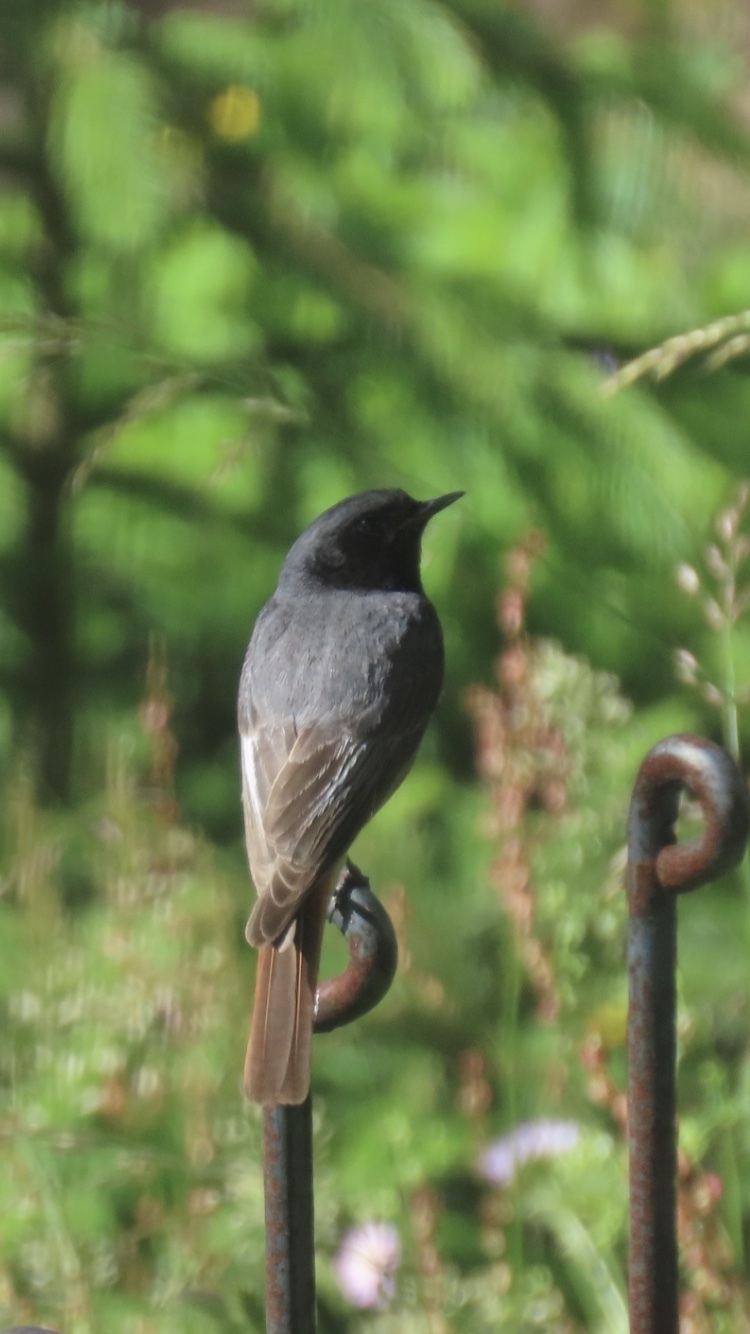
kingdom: Animalia
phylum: Chordata
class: Aves
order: Passeriformes
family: Muscicapidae
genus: Phoenicurus
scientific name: Phoenicurus ochruros
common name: Black redstart
